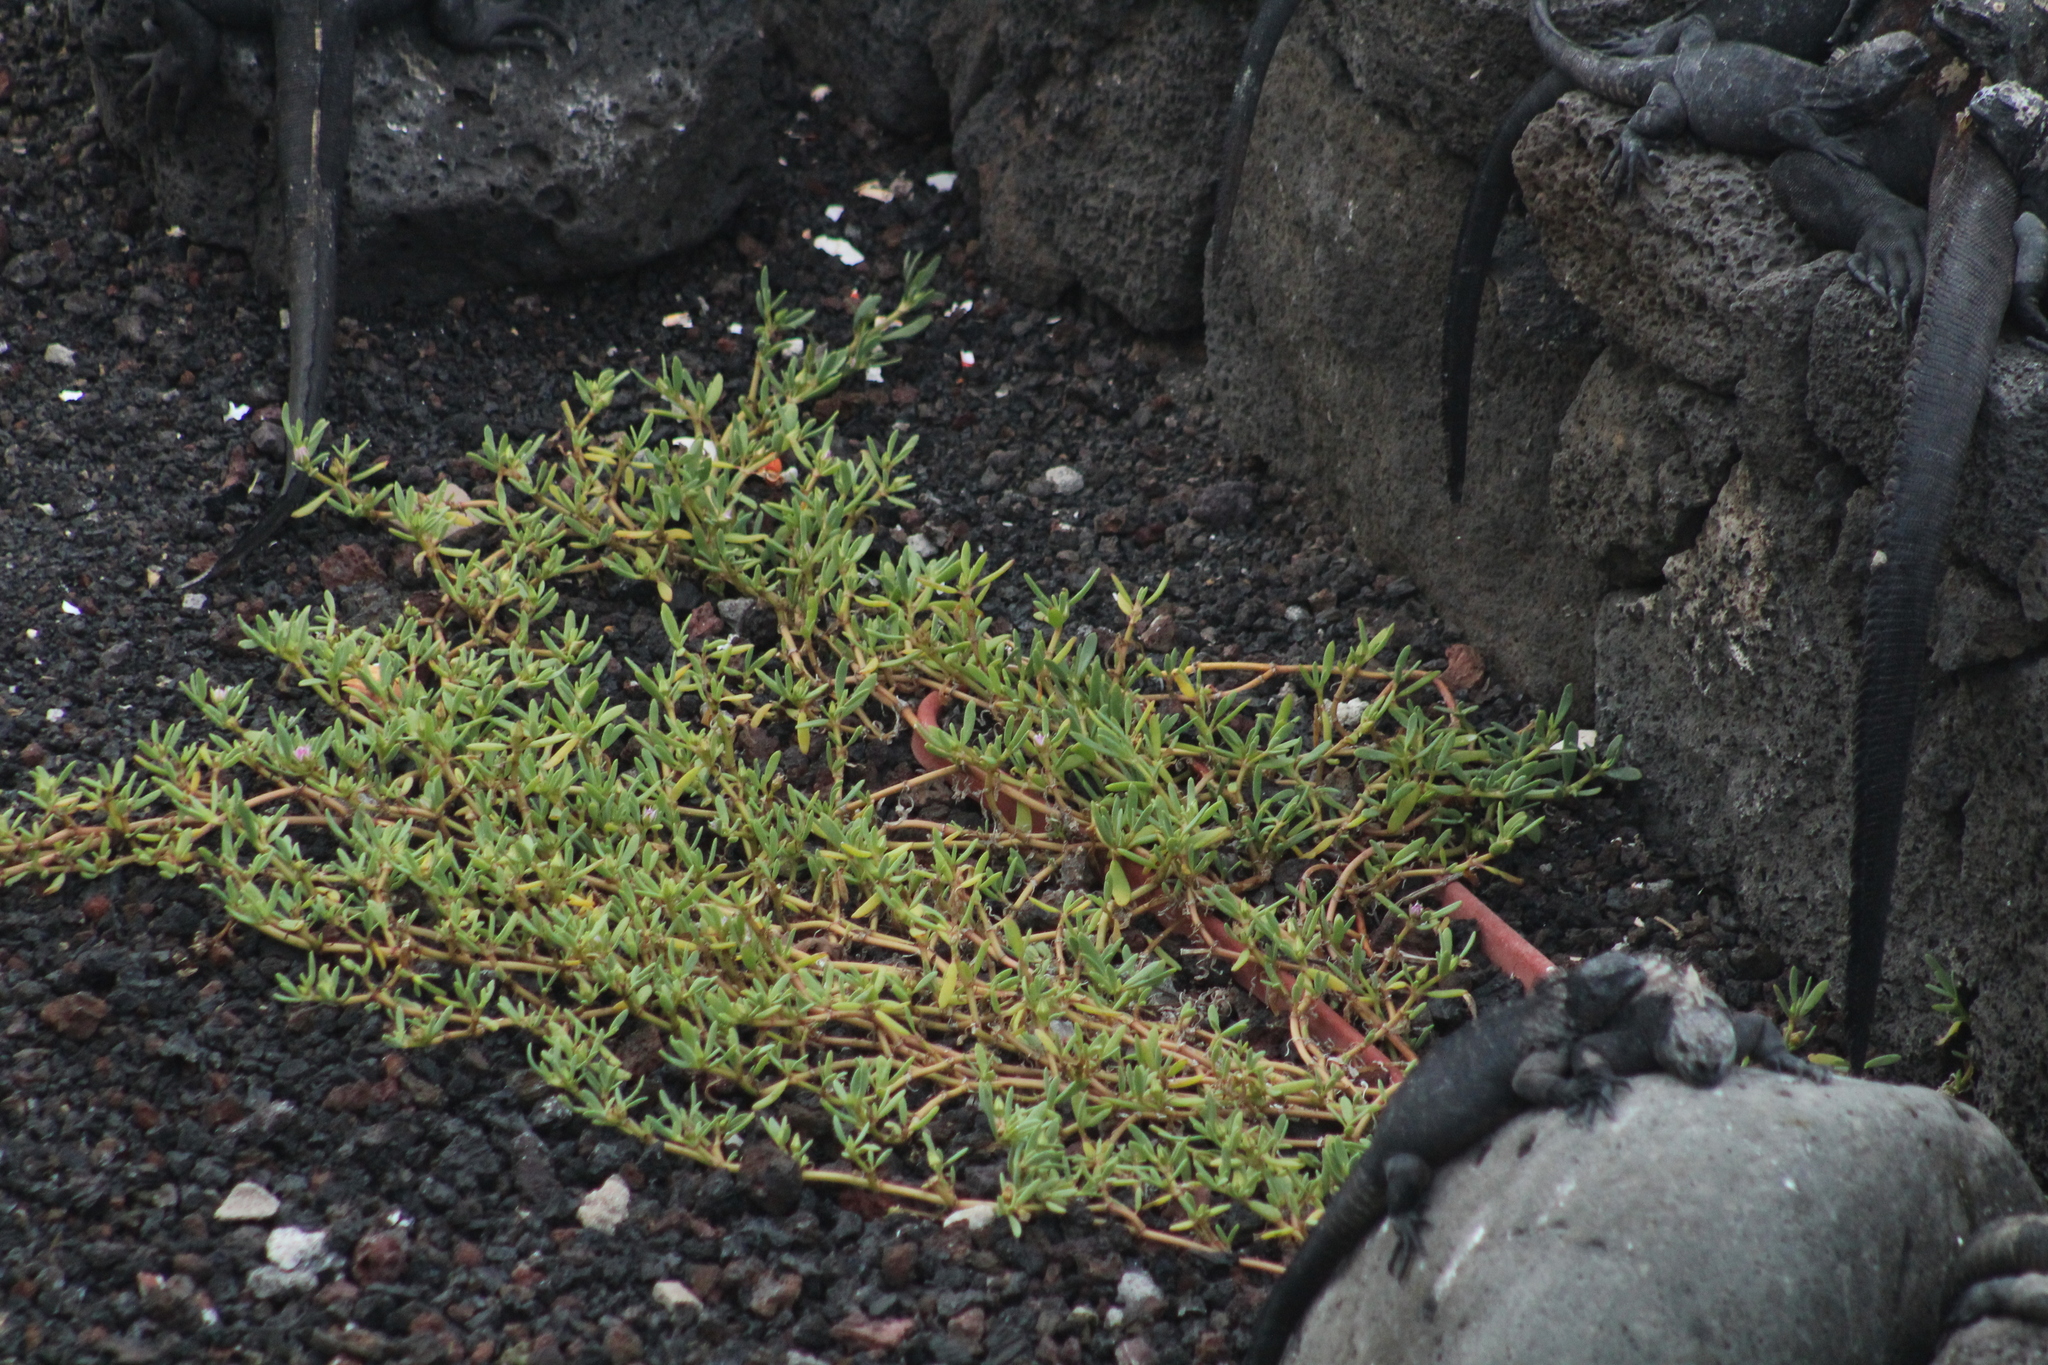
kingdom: Plantae
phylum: Tracheophyta
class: Magnoliopsida
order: Caryophyllales
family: Aizoaceae
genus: Sesuvium
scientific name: Sesuvium portulacastrum
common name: Sea-purslane
